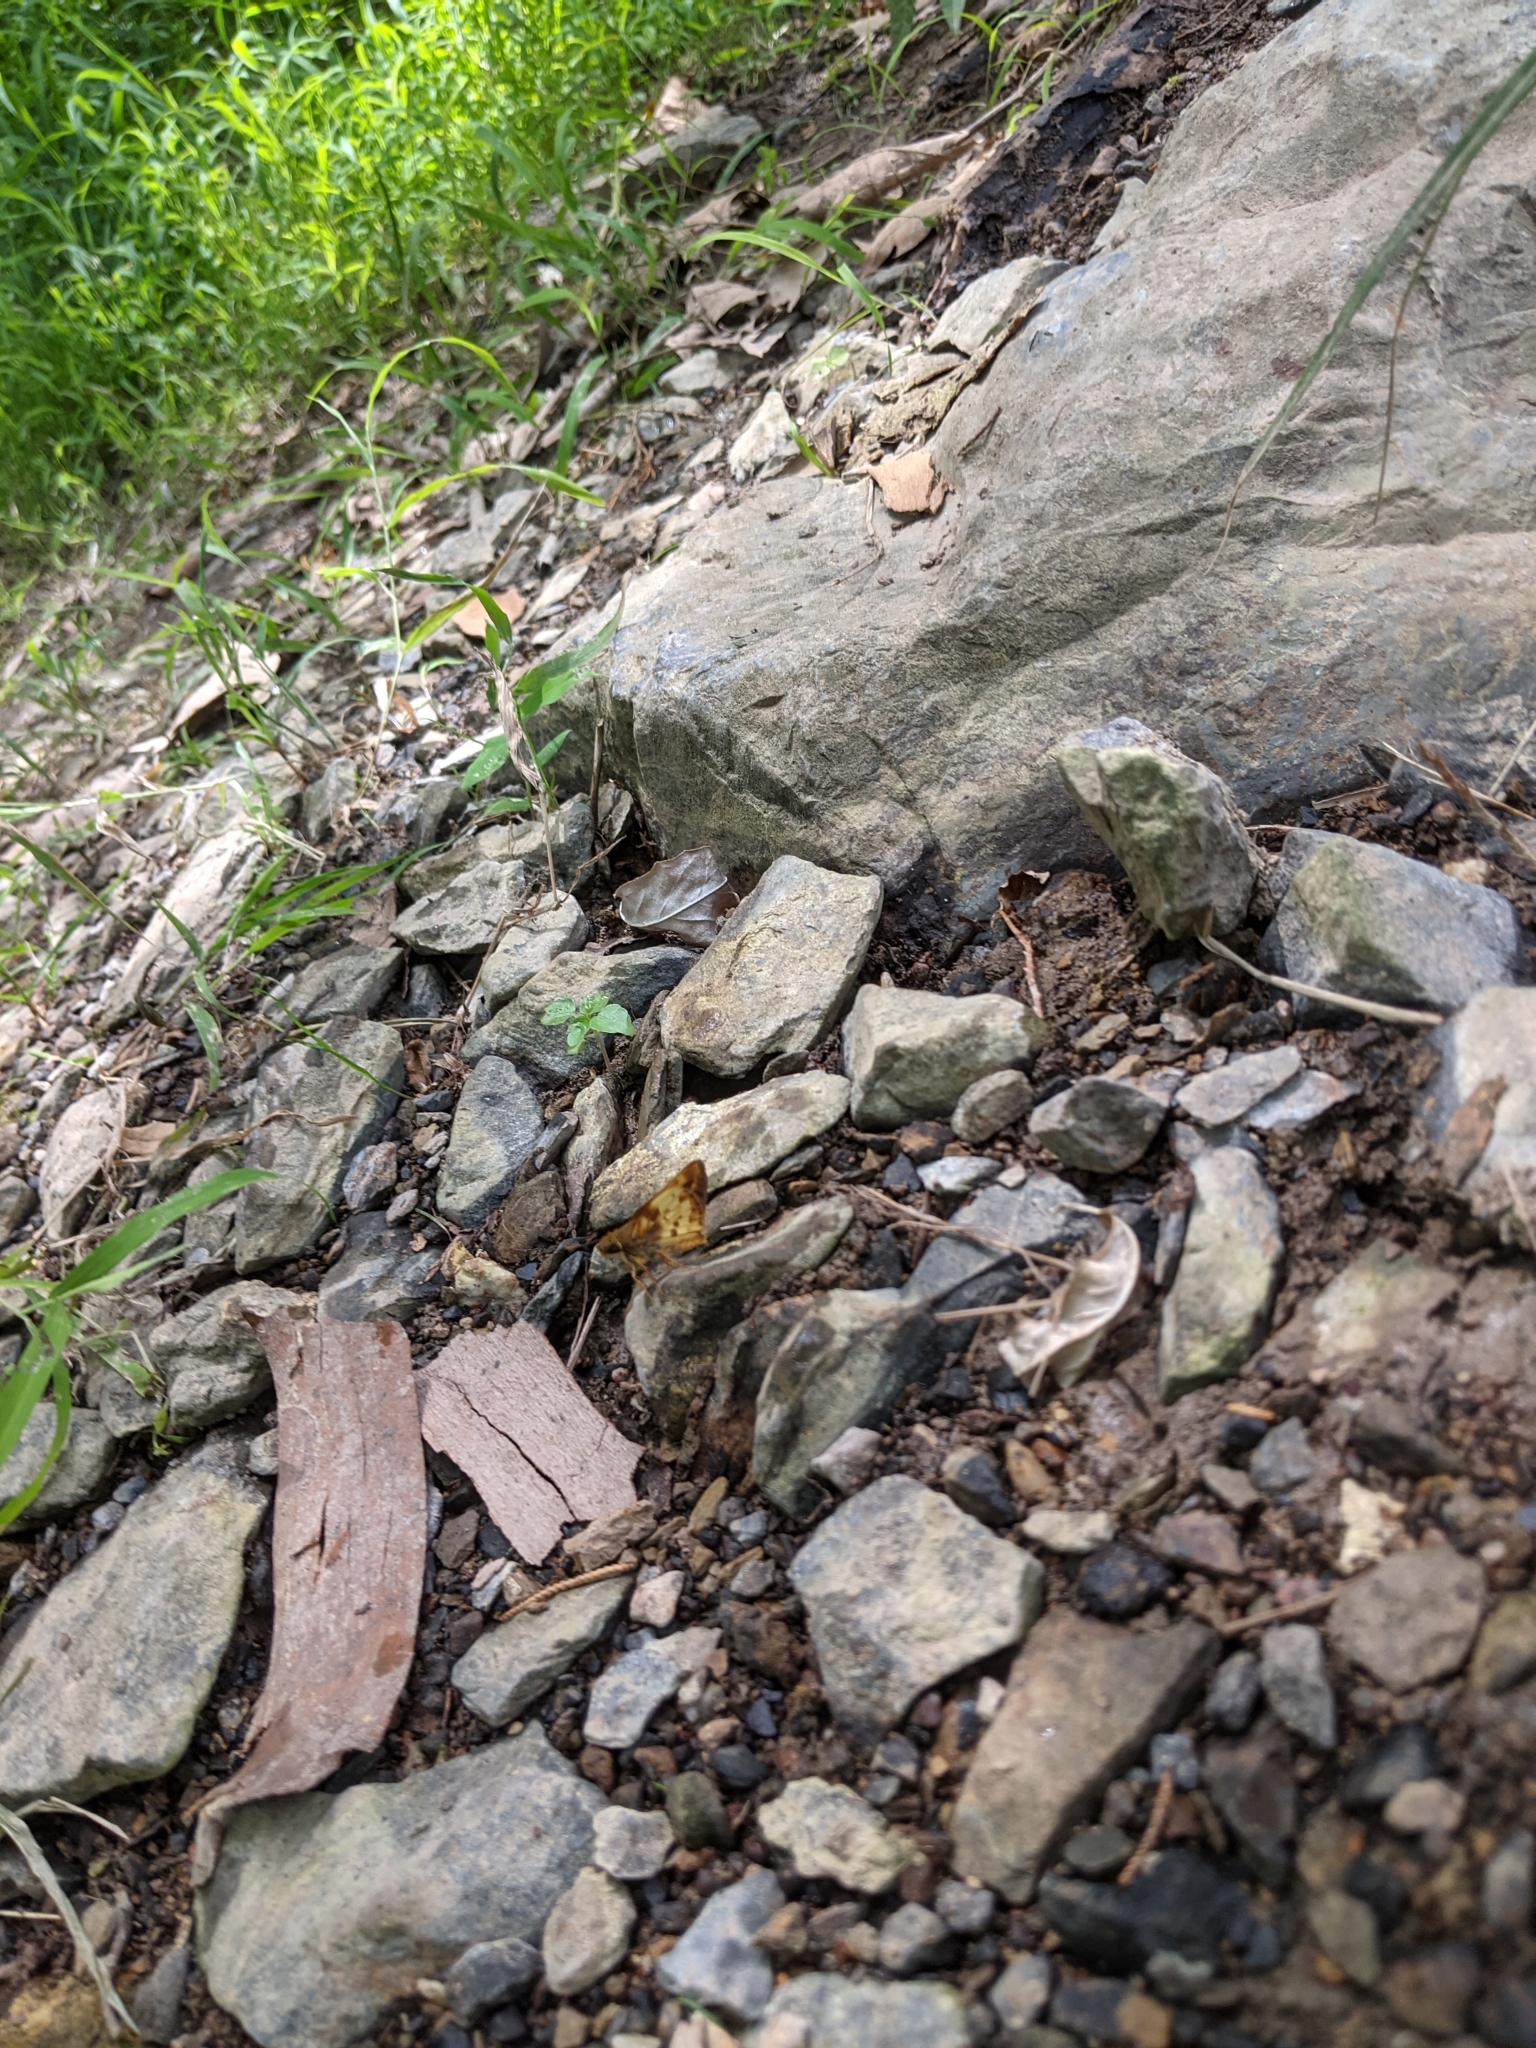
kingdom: Animalia
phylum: Arthropoda
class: Insecta
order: Lepidoptera
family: Hesperiidae
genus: Lon
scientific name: Lon zabulon
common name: Zabulon skipper
